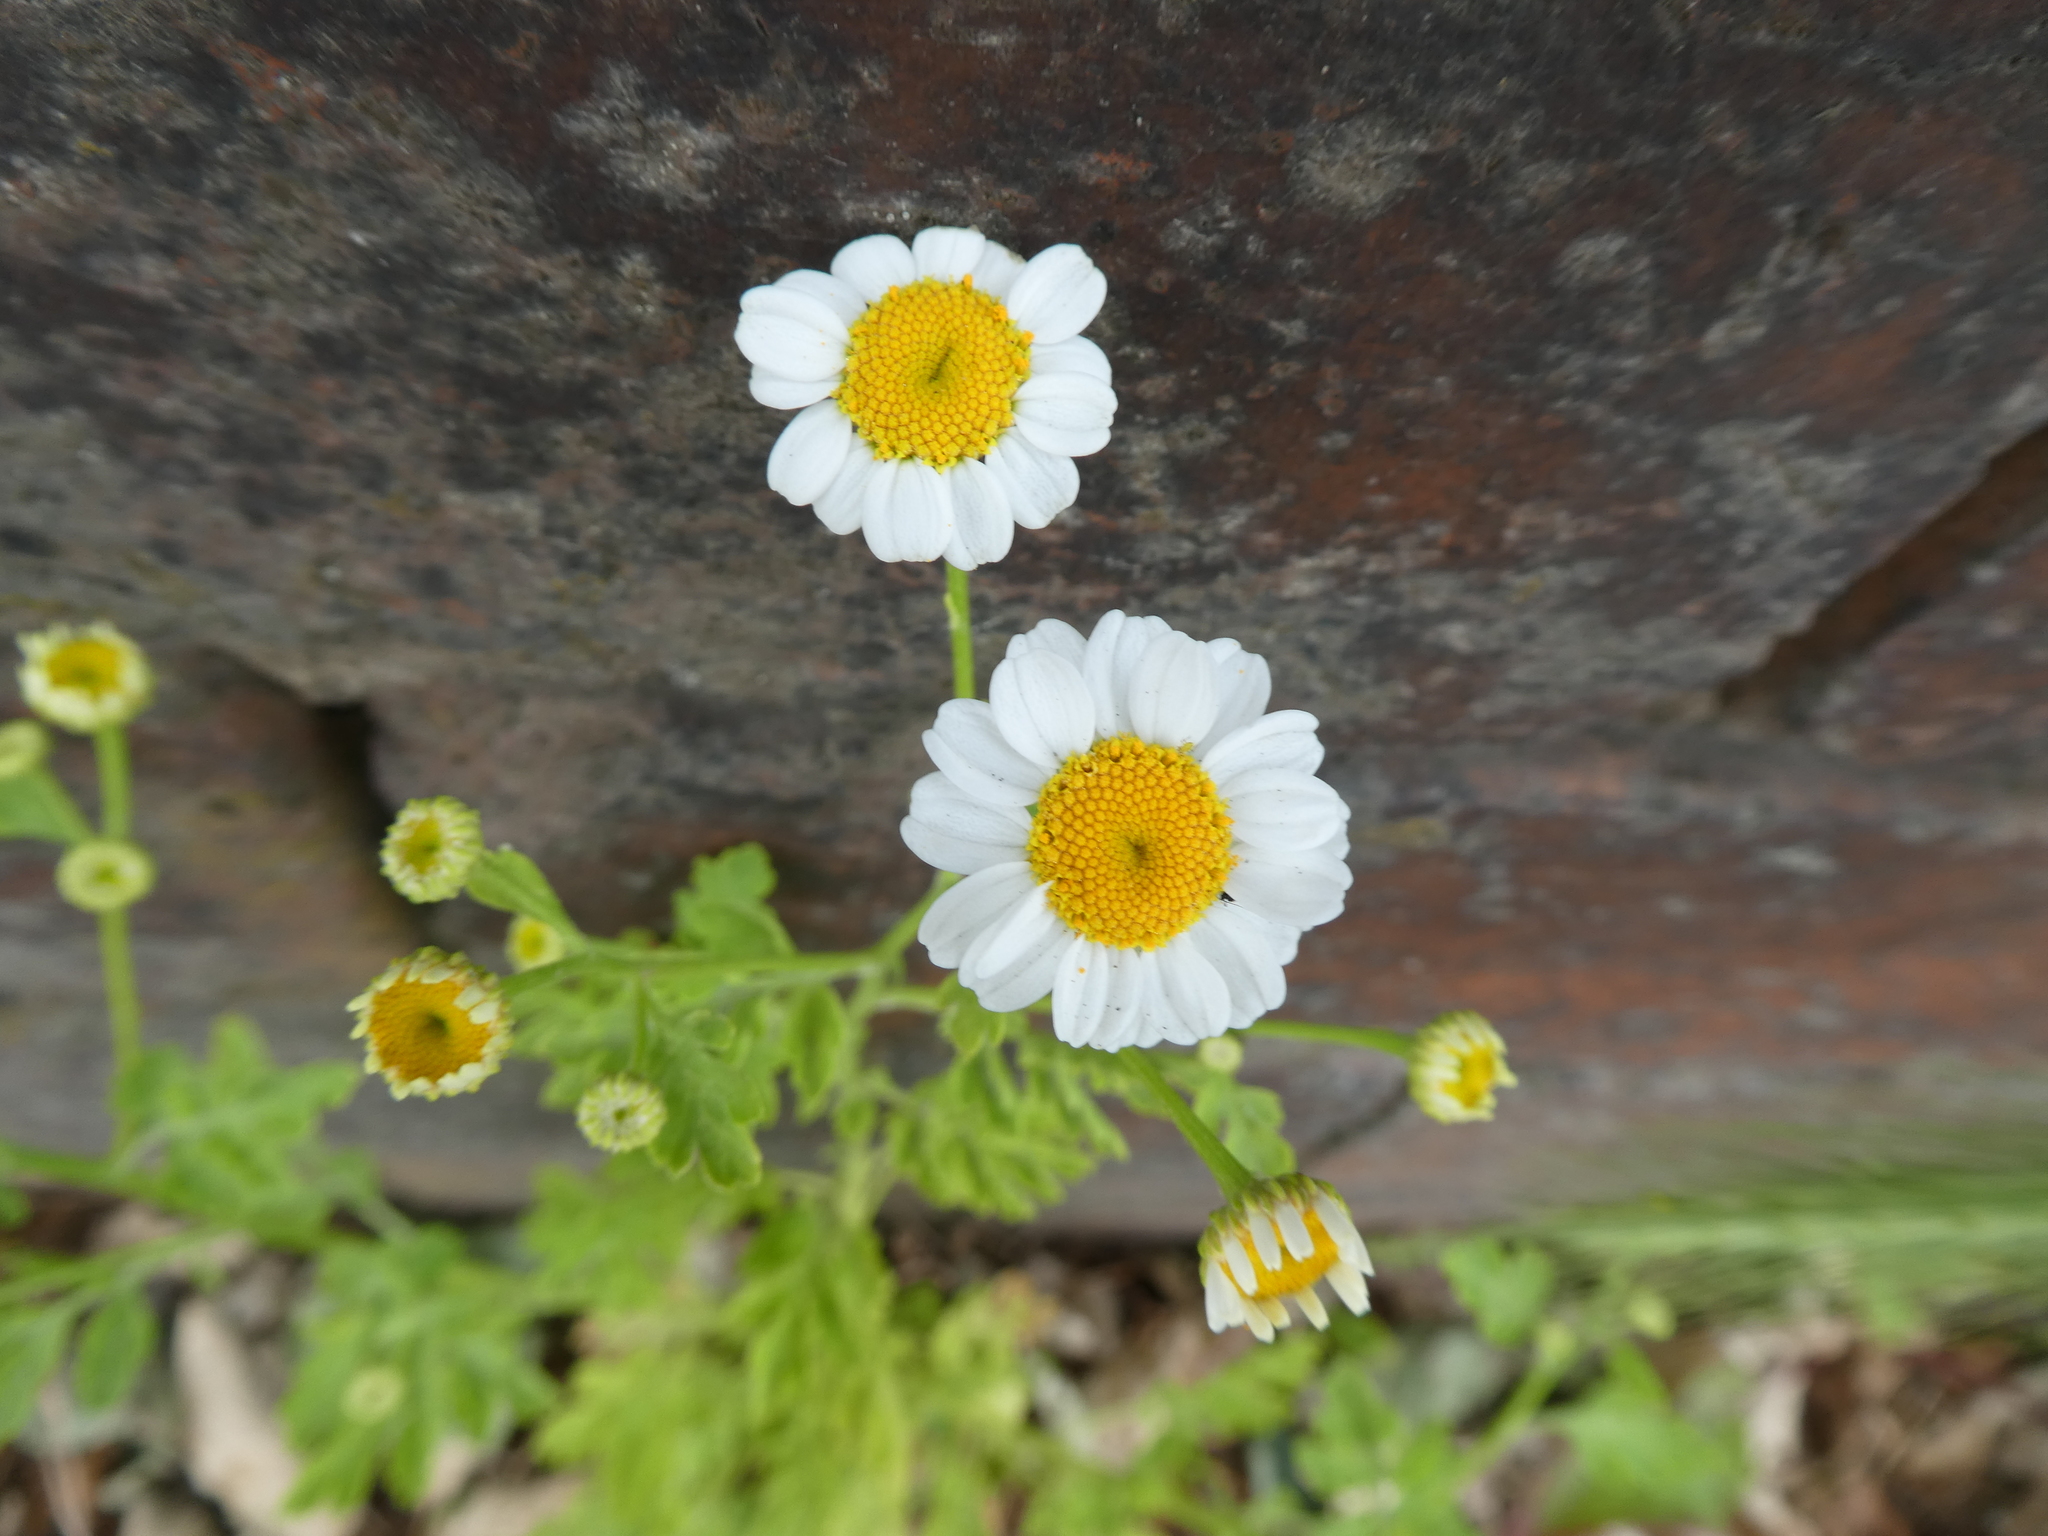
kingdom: Plantae
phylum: Tracheophyta
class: Magnoliopsida
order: Asterales
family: Asteraceae
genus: Tanacetum
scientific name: Tanacetum parthenium
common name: Feverfew
